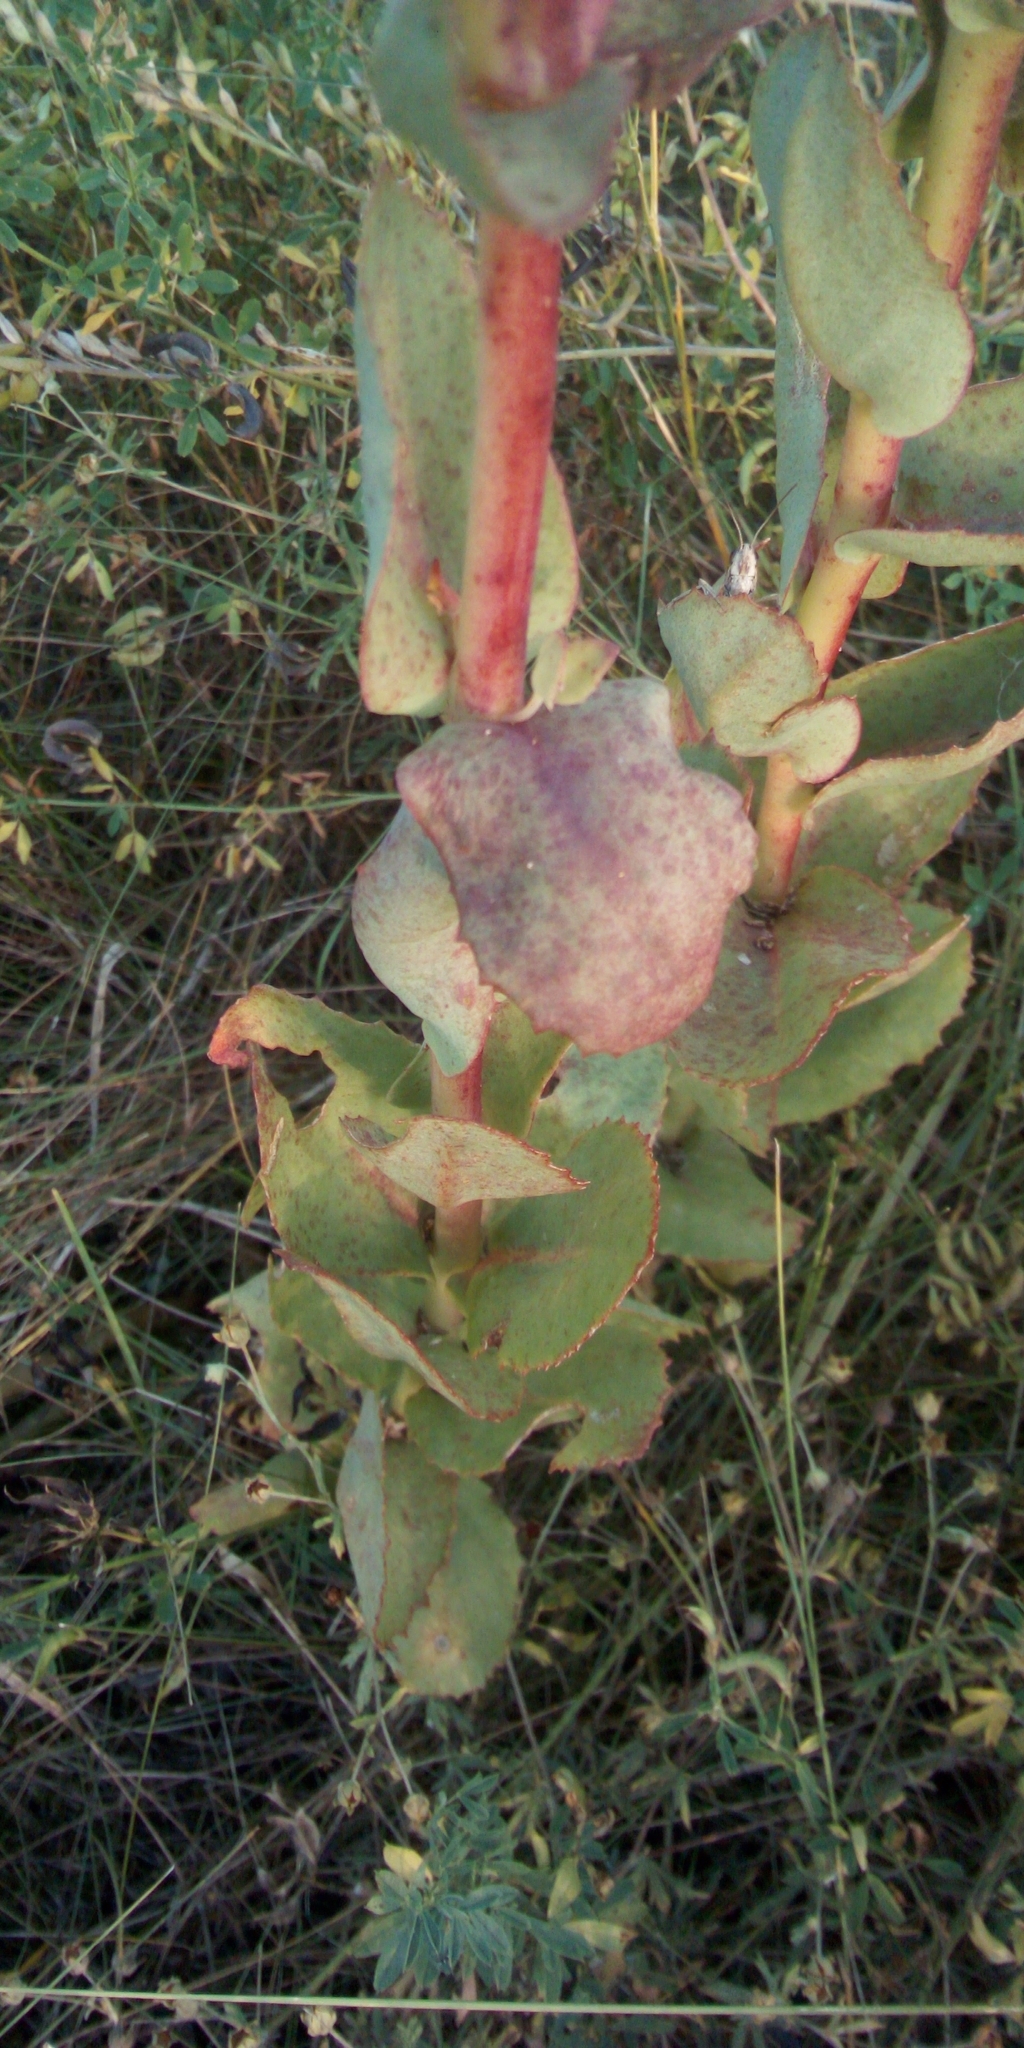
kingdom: Plantae
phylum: Tracheophyta
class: Magnoliopsida
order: Saxifragales
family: Crassulaceae
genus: Hylotelephium
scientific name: Hylotelephium maximum
